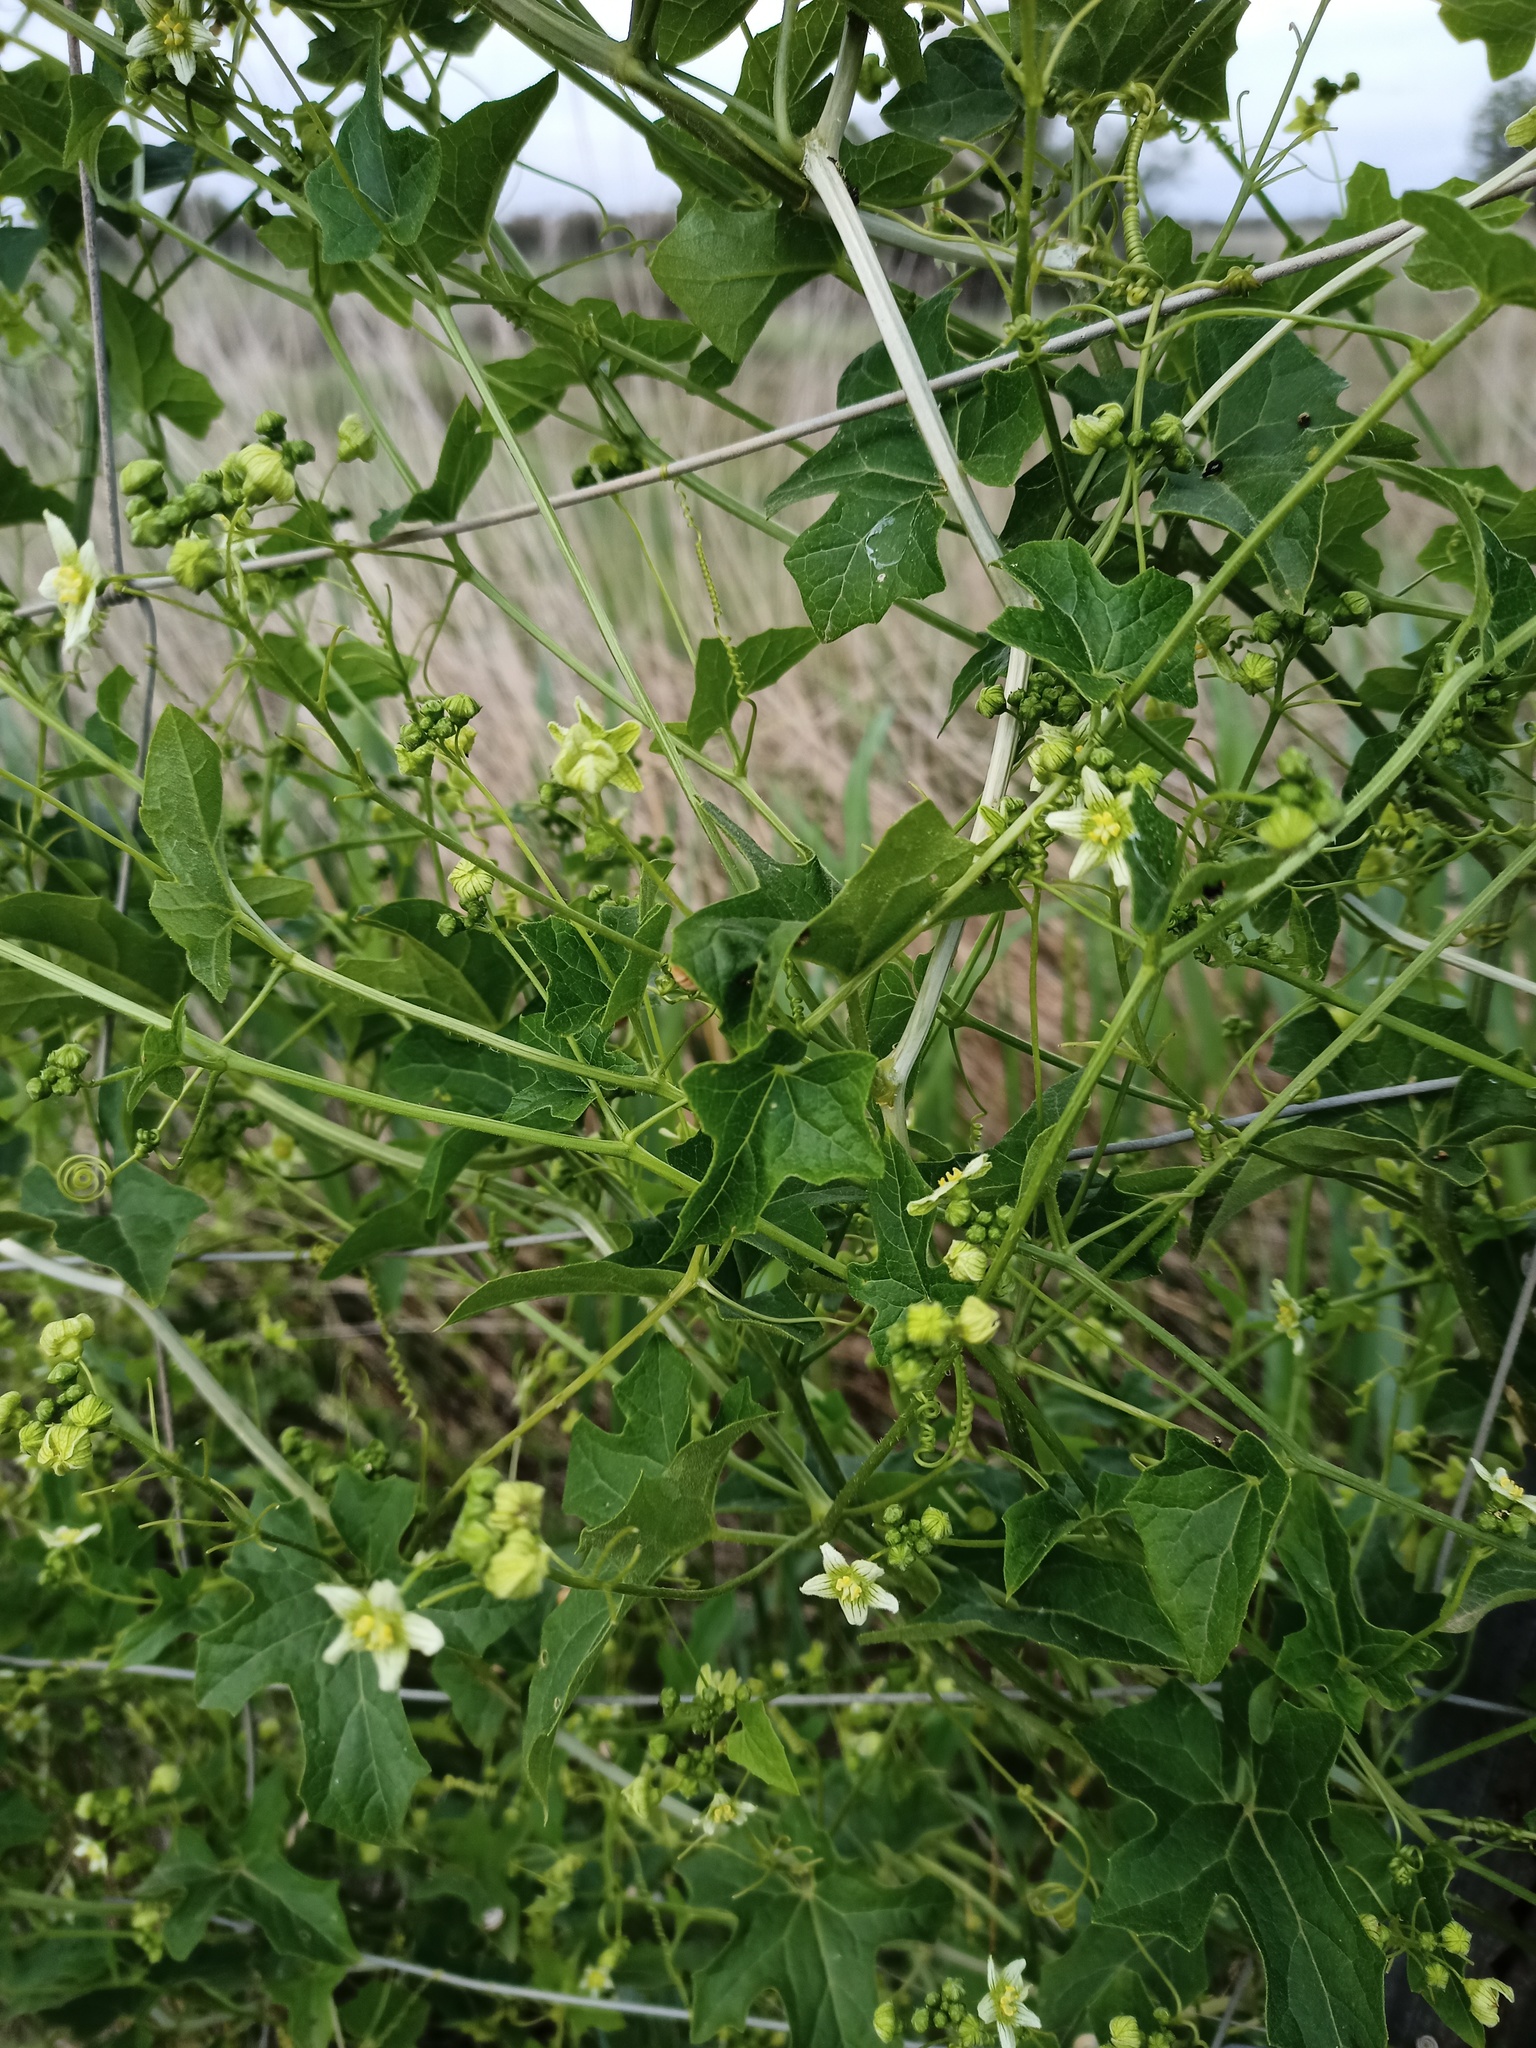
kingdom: Plantae
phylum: Tracheophyta
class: Magnoliopsida
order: Cucurbitales
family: Cucurbitaceae
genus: Bryonia
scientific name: Bryonia cretica
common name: Cretan bryony
